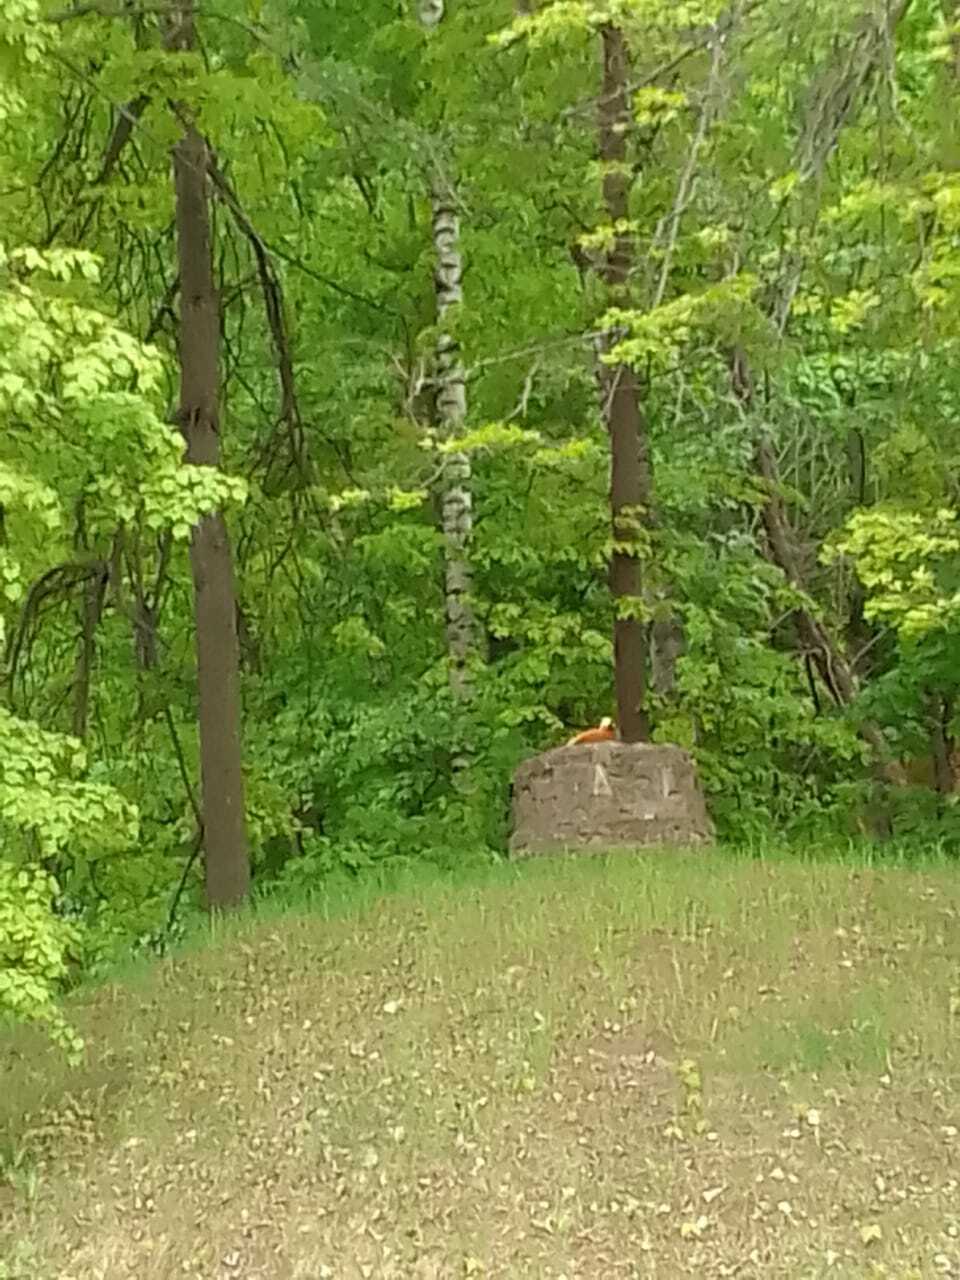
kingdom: Animalia
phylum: Chordata
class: Aves
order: Anseriformes
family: Anatidae
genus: Tadorna
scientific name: Tadorna ferruginea
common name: Ruddy shelduck
